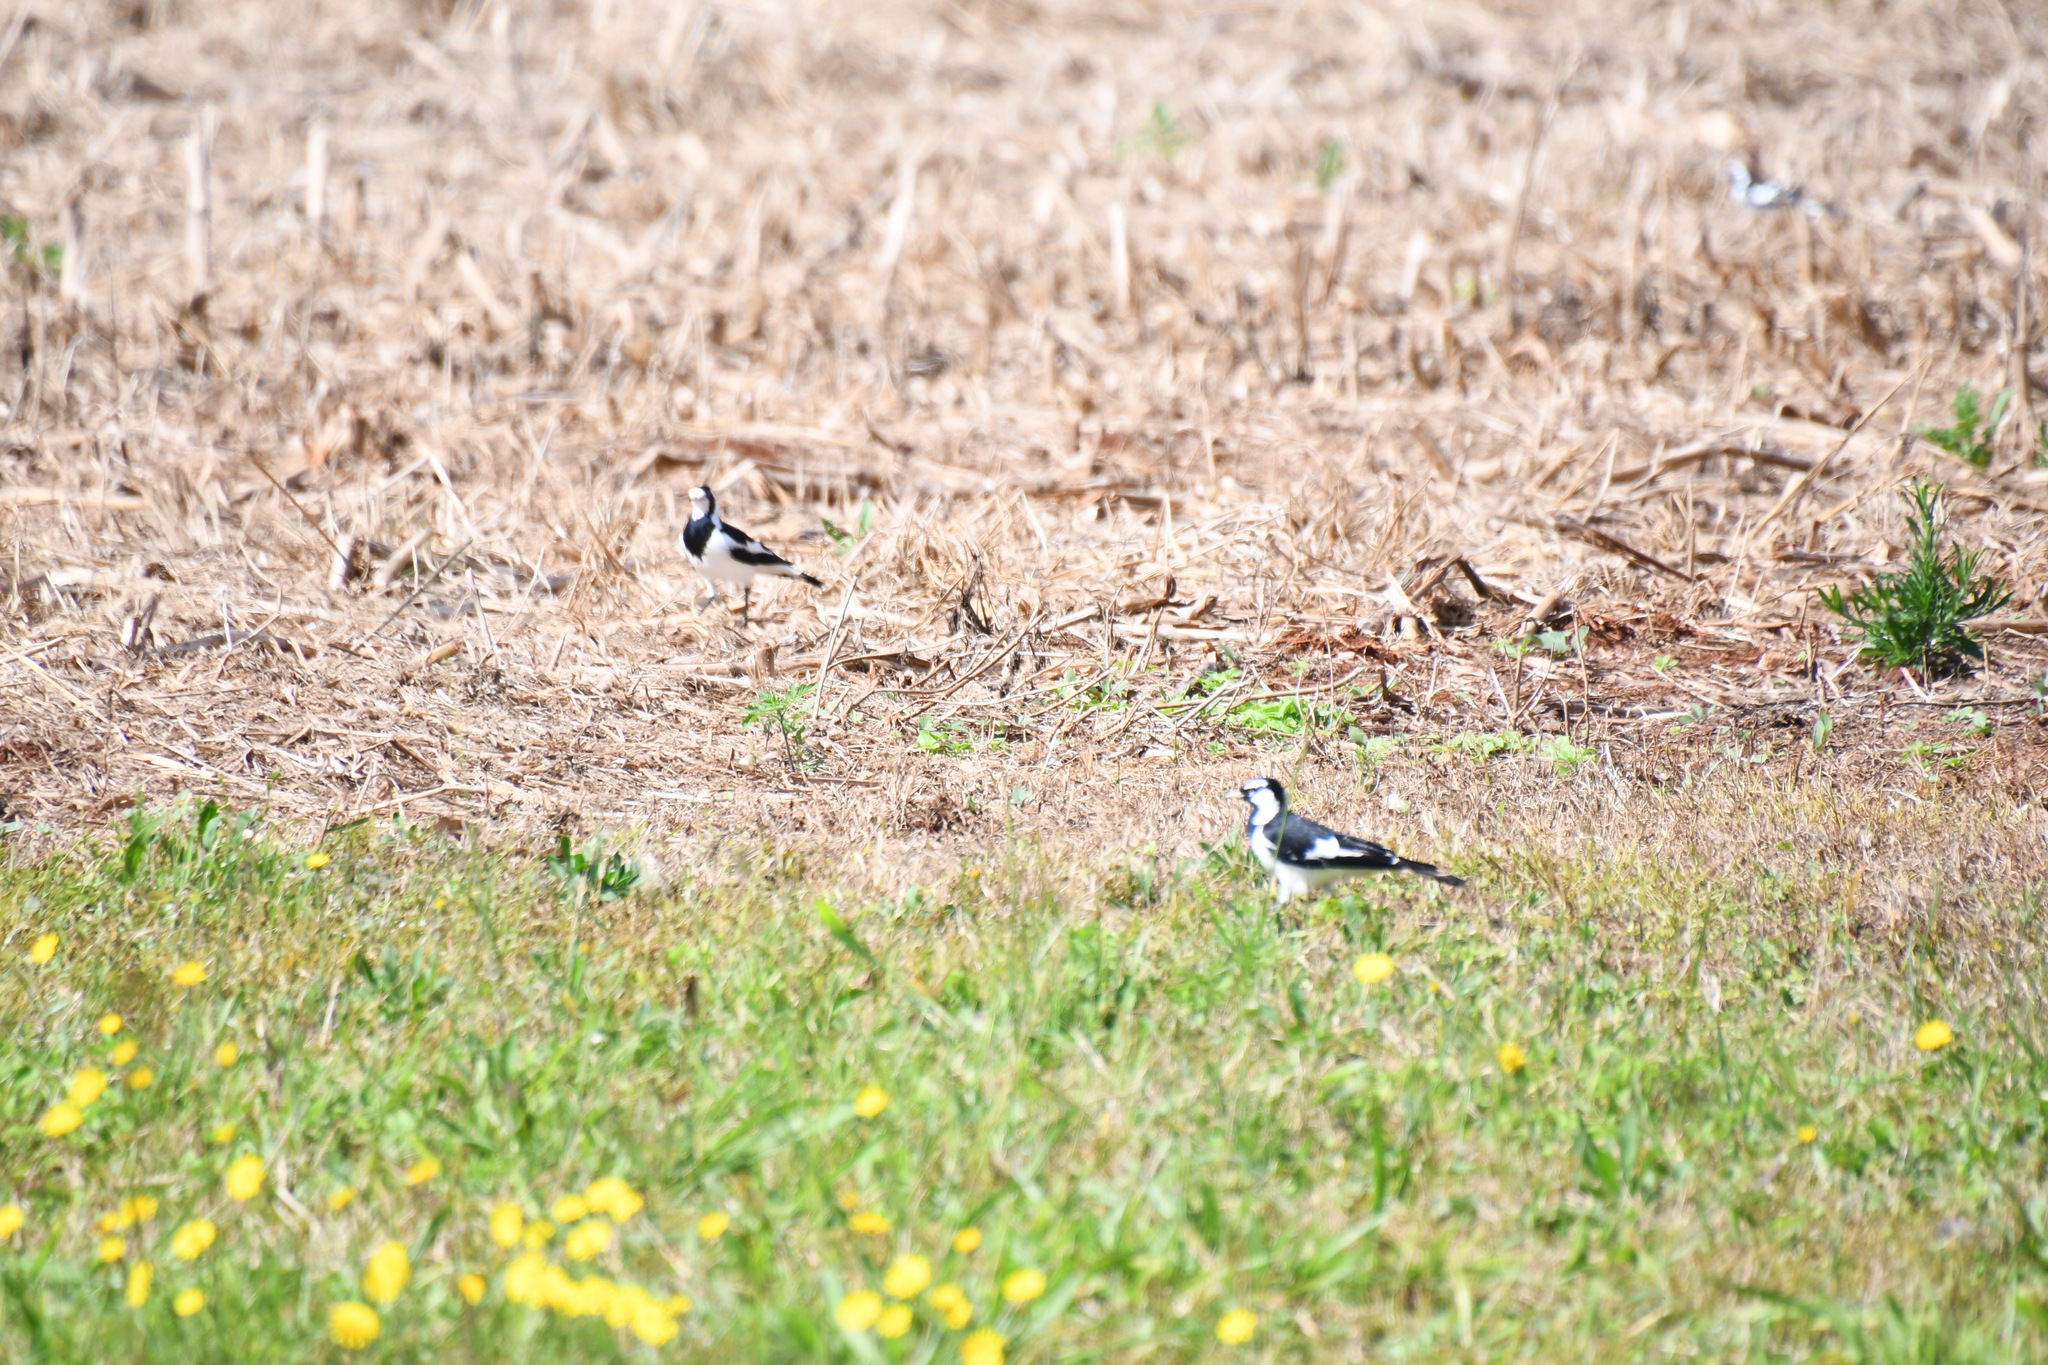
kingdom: Animalia
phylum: Chordata
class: Aves
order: Passeriformes
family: Monarchidae
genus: Grallina
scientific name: Grallina cyanoleuca
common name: Magpie-lark
